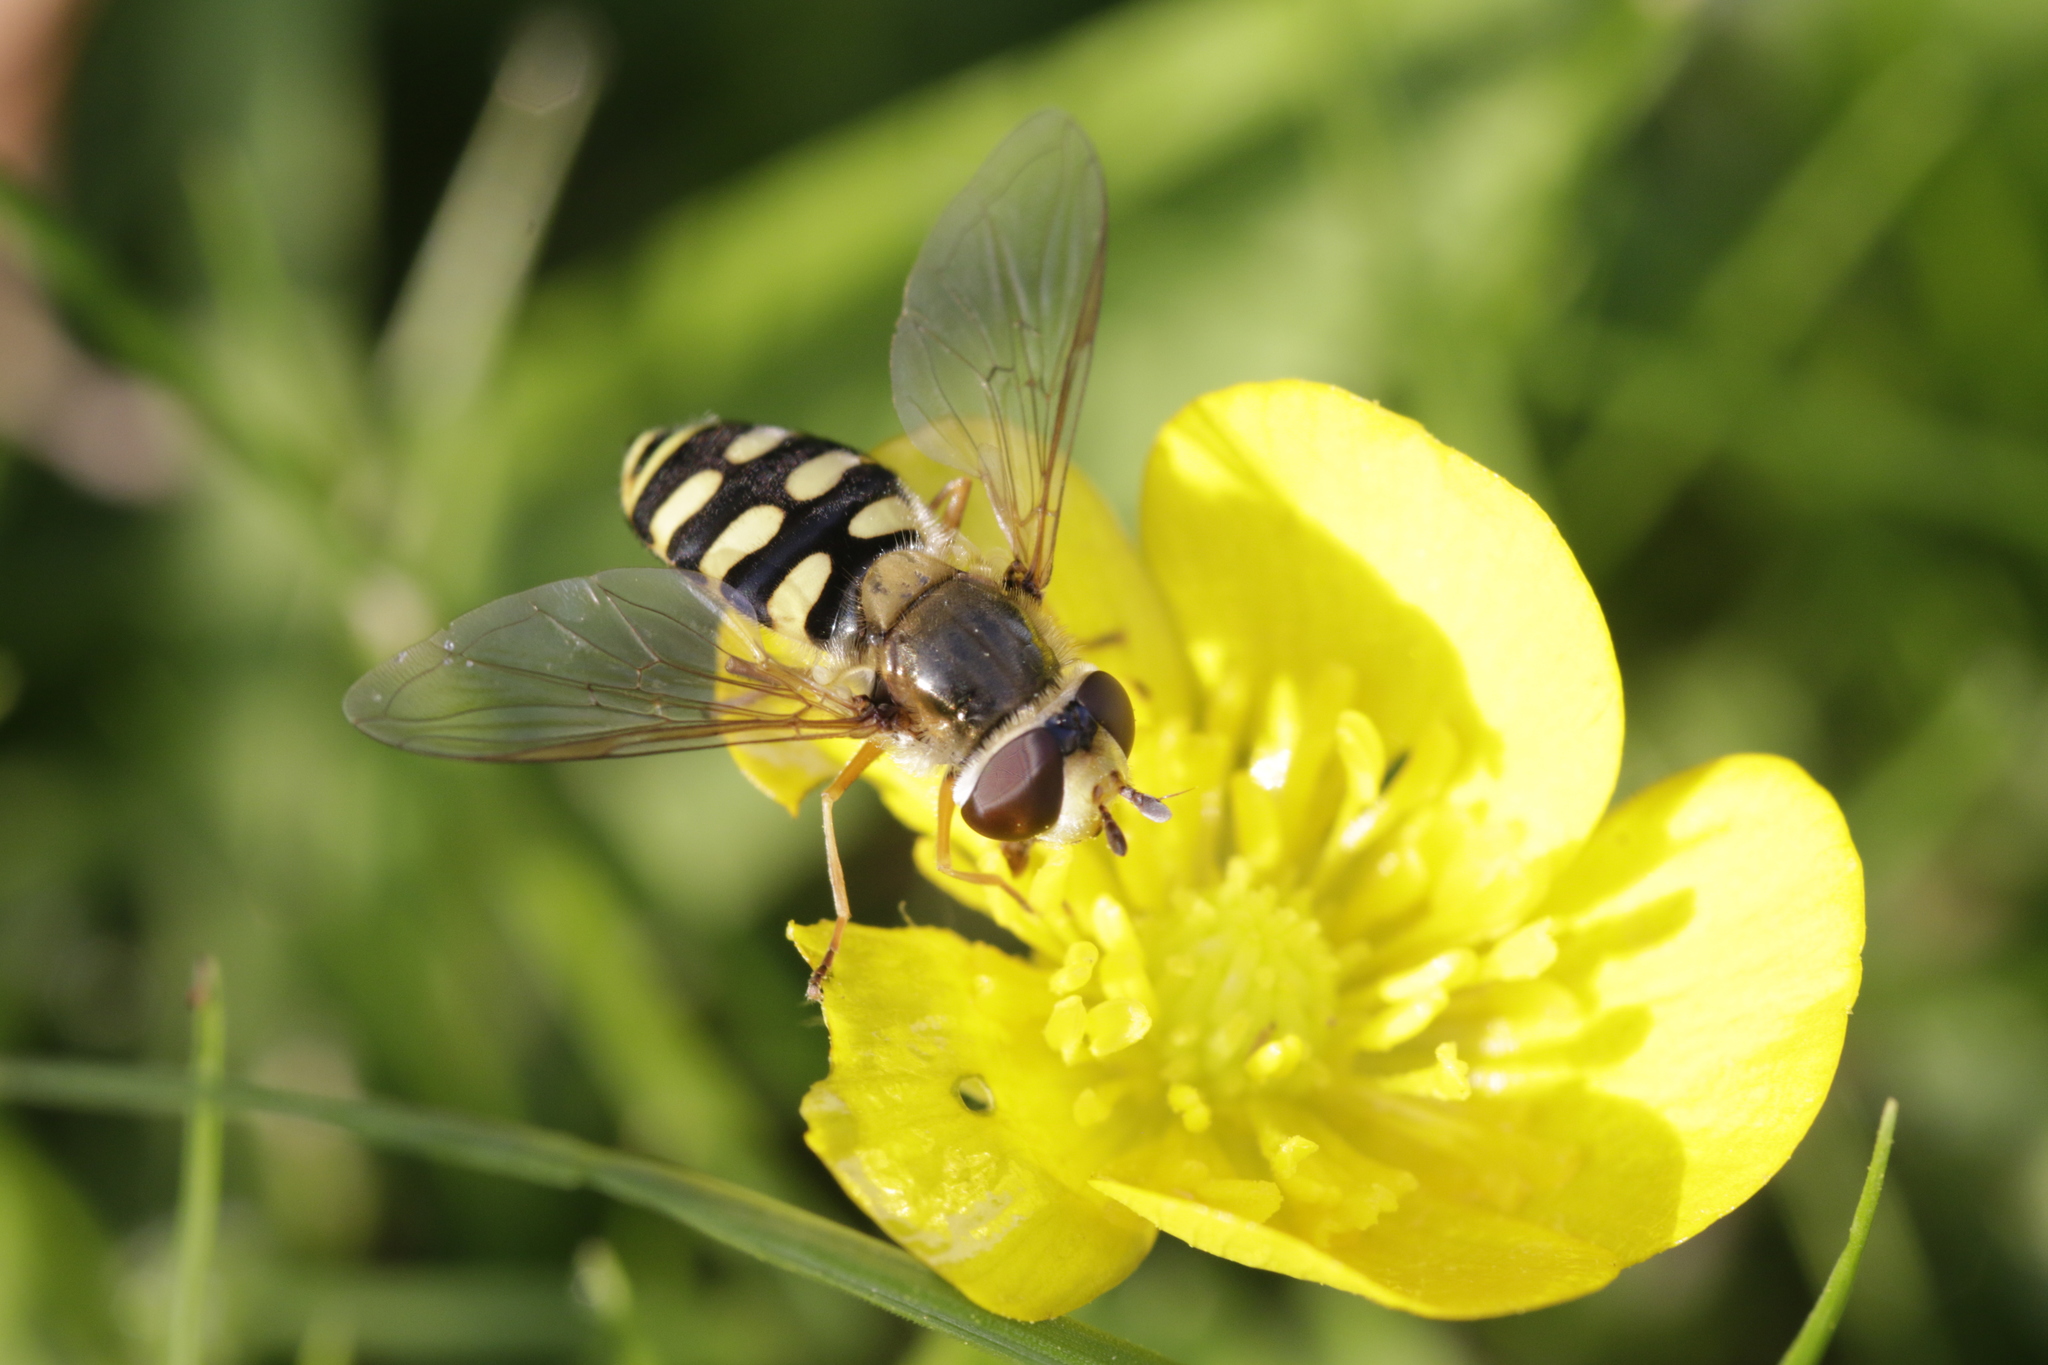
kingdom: Animalia
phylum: Arthropoda
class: Insecta
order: Diptera
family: Syrphidae
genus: Eupeodes
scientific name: Eupeodes corollae
